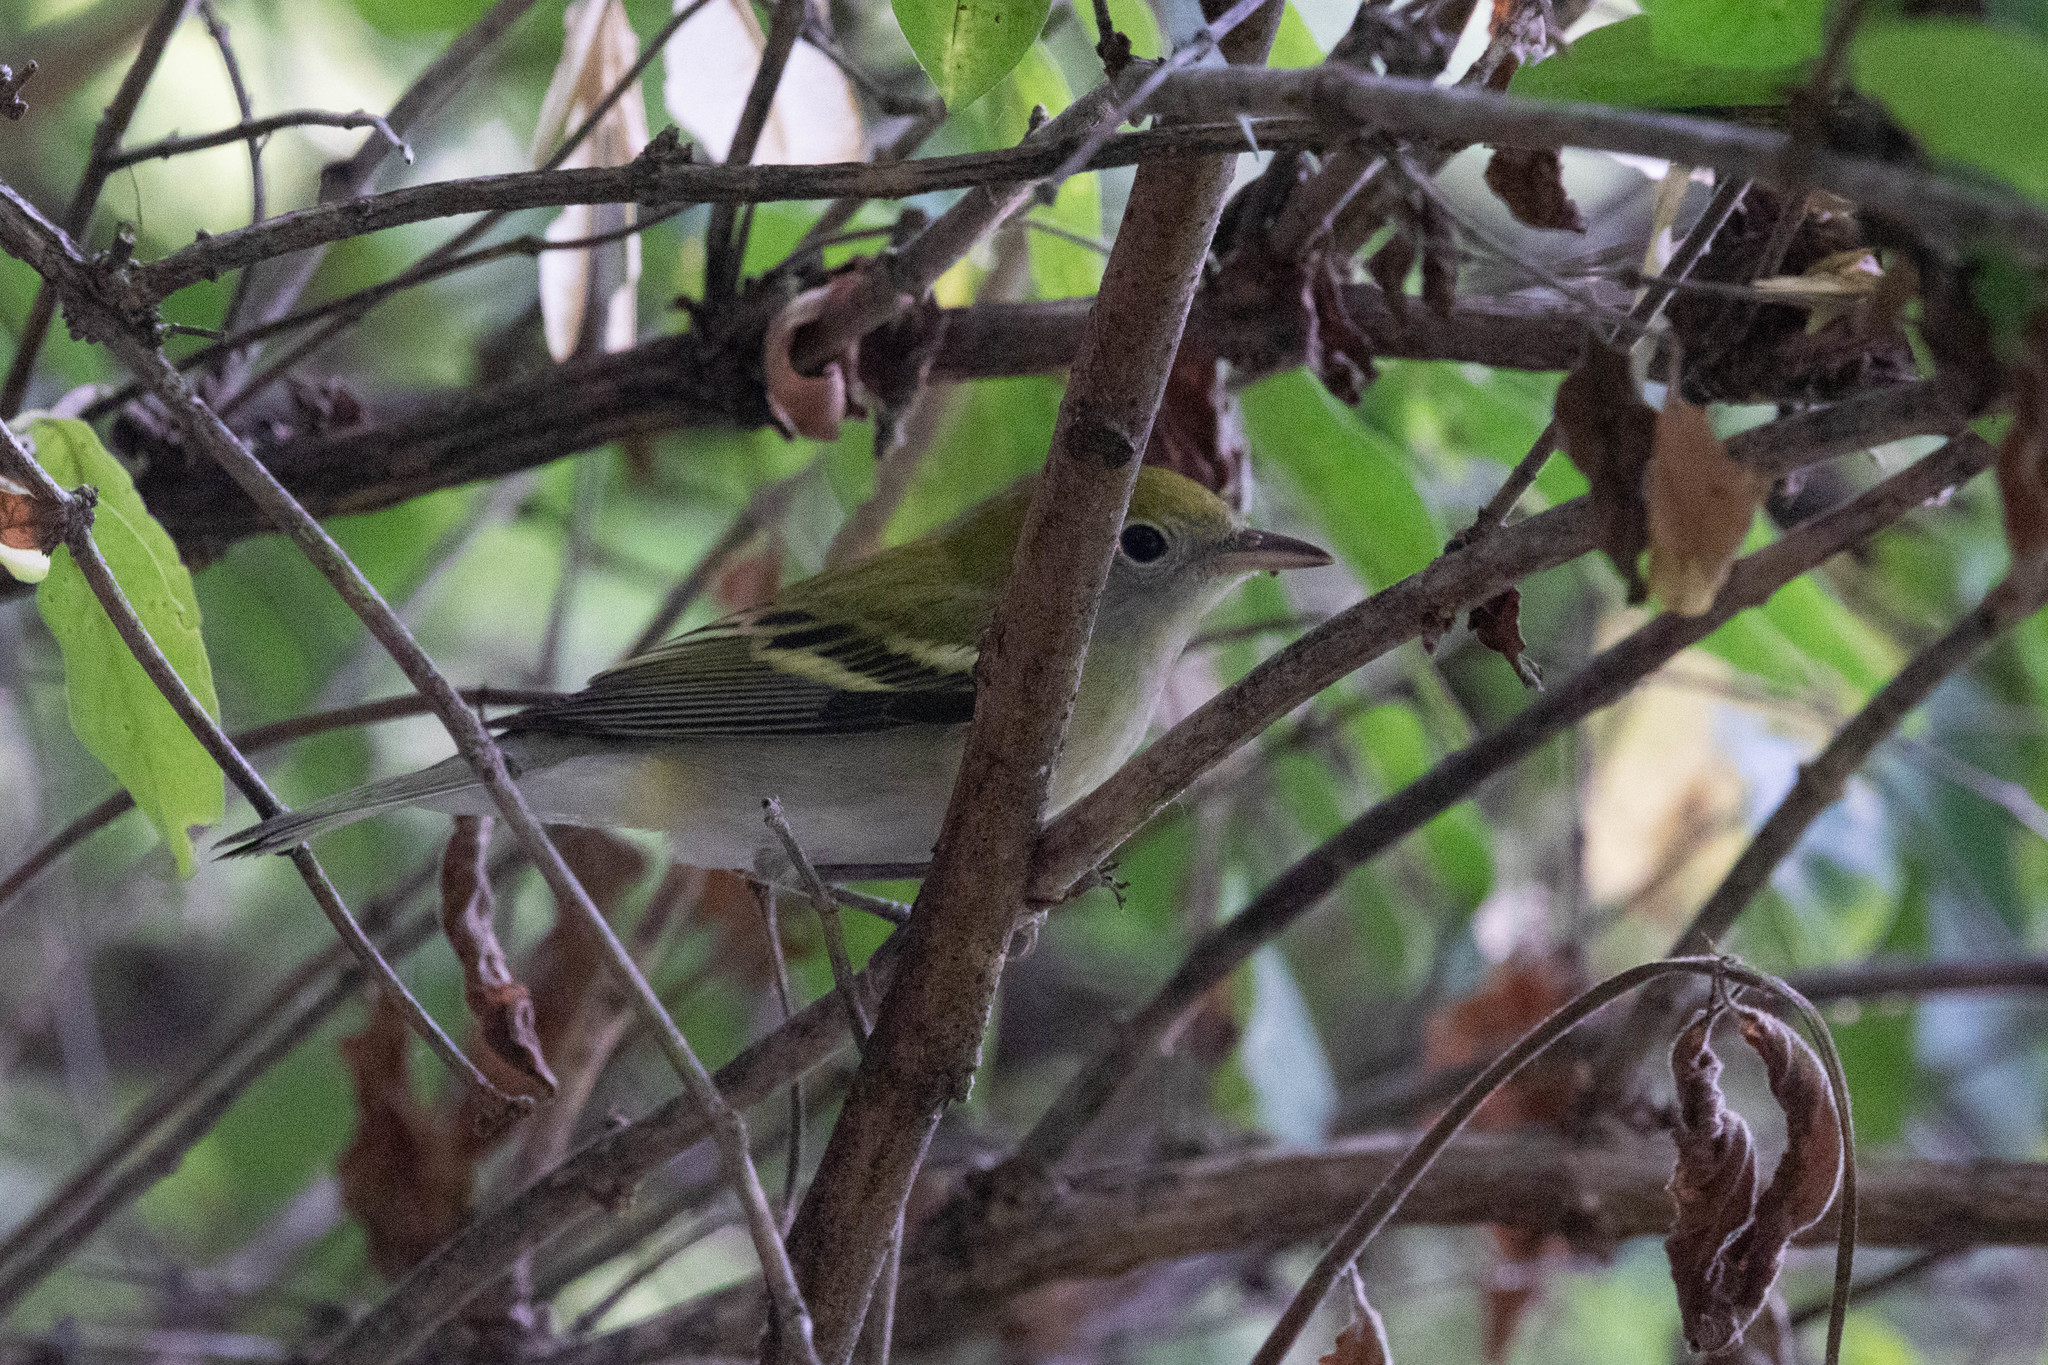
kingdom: Animalia
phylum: Chordata
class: Aves
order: Passeriformes
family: Parulidae
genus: Setophaga
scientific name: Setophaga pensylvanica
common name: Chestnut-sided warbler
